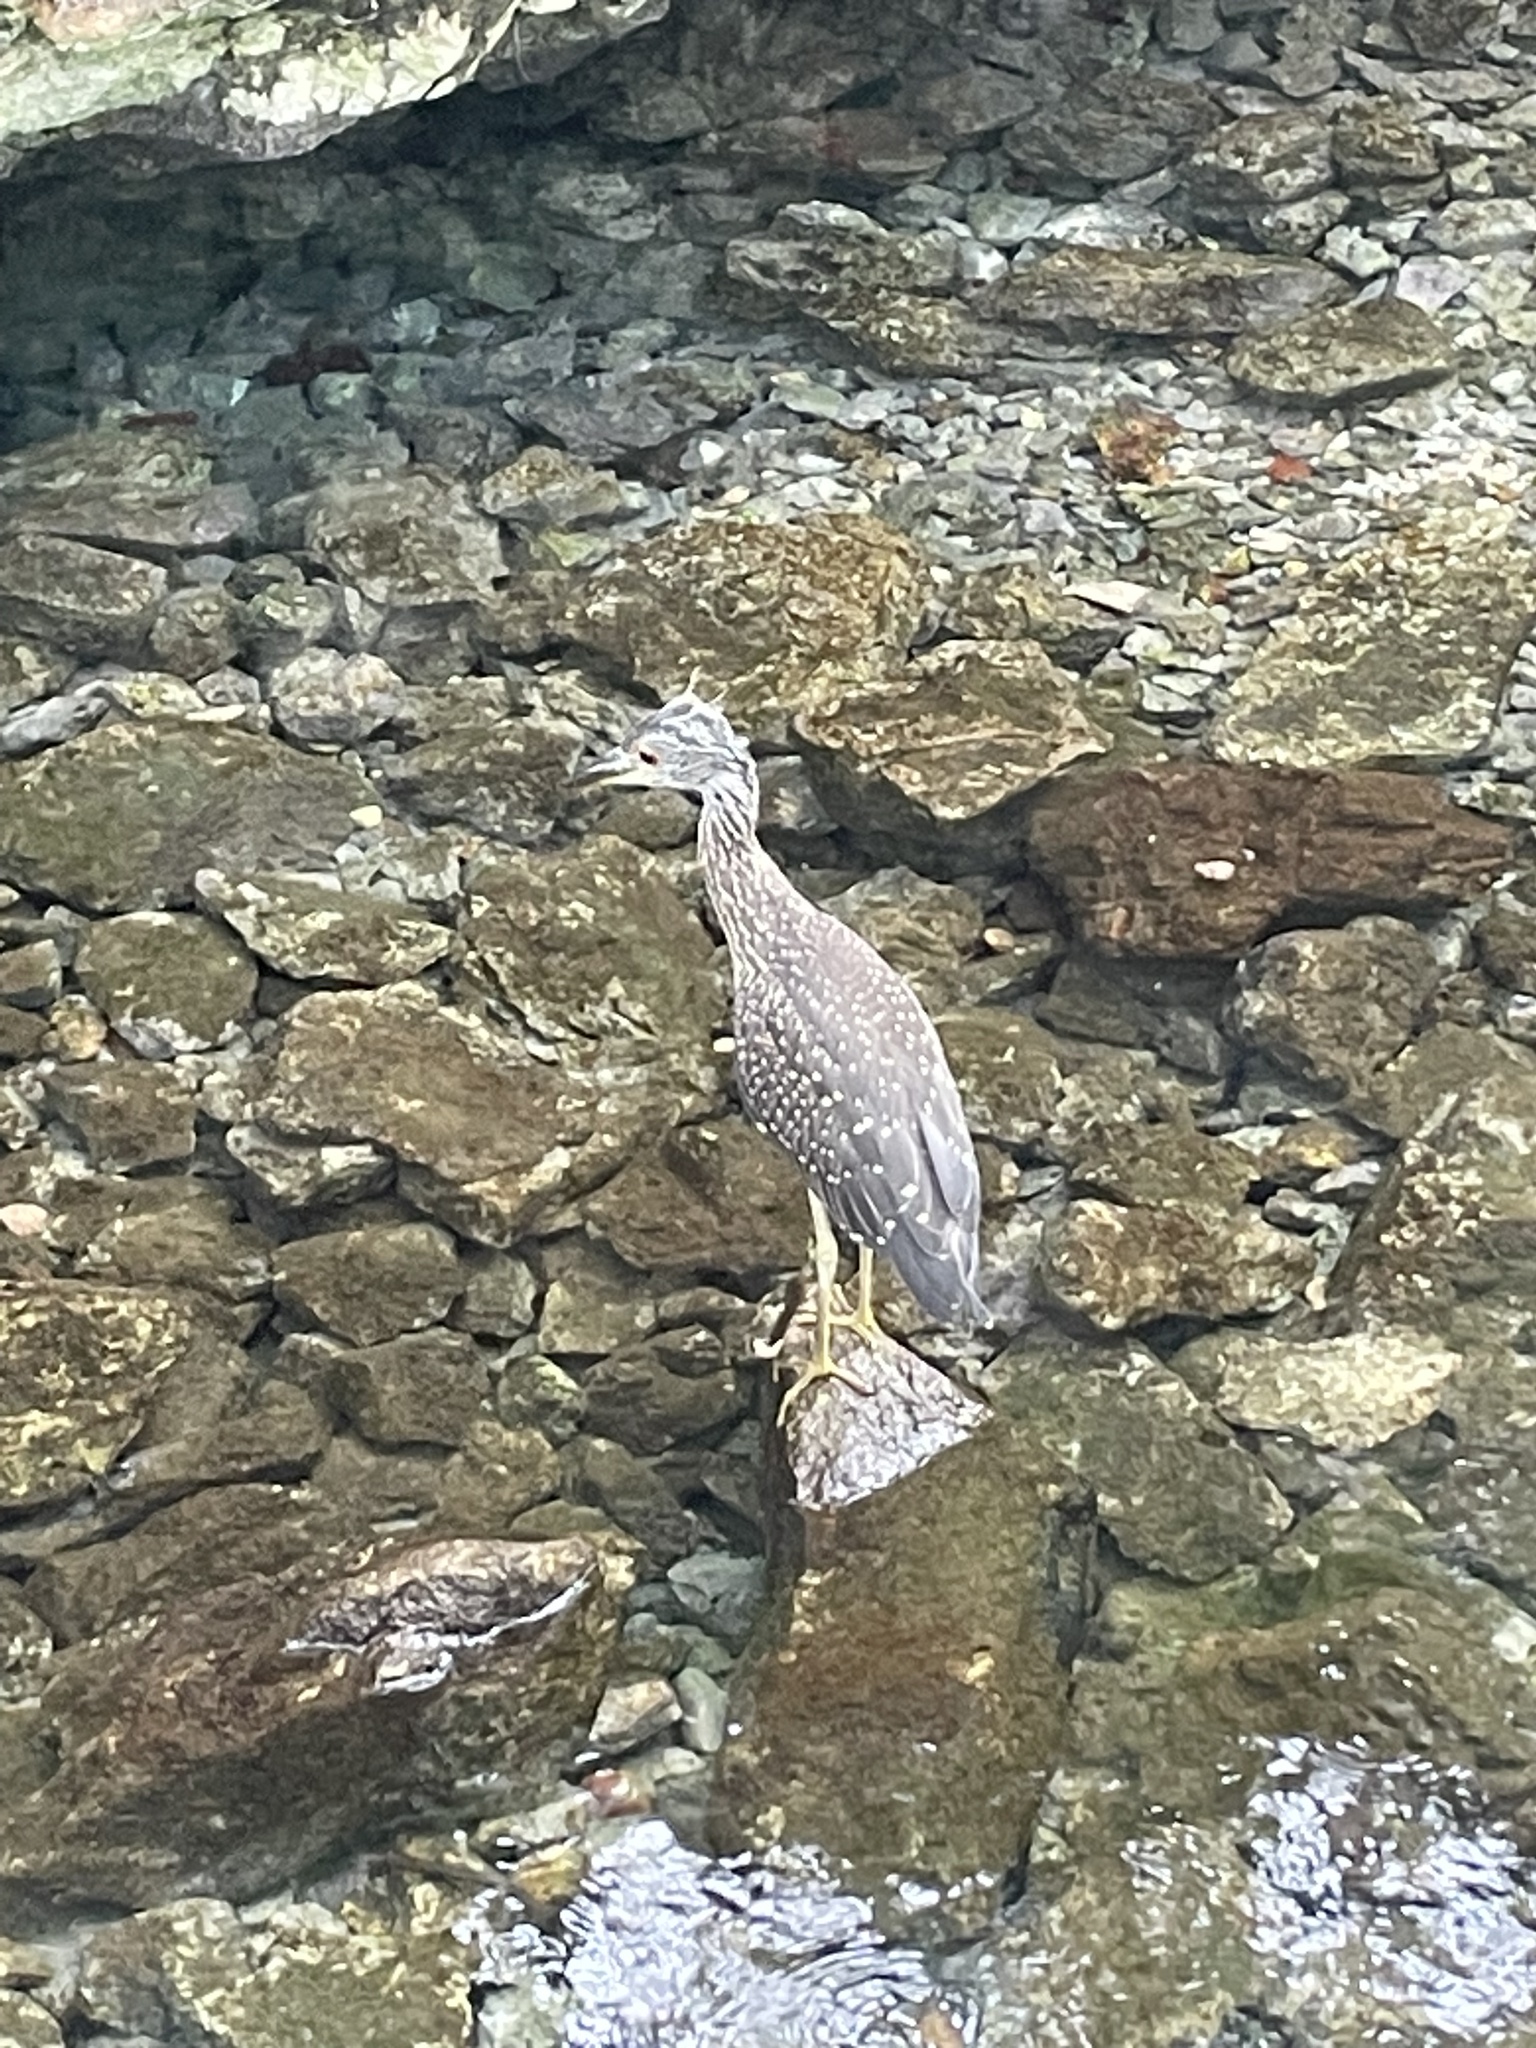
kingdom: Animalia
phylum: Chordata
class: Aves
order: Pelecaniformes
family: Ardeidae
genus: Nyctanassa
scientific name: Nyctanassa violacea
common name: Yellow-crowned night heron
